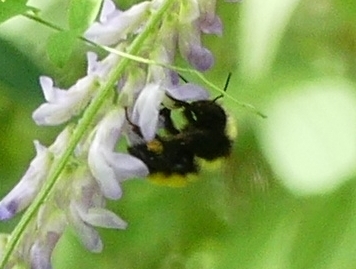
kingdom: Animalia
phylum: Arthropoda
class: Insecta
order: Hymenoptera
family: Apidae
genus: Bombus
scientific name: Bombus borealis
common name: Northern amber bumble bee
